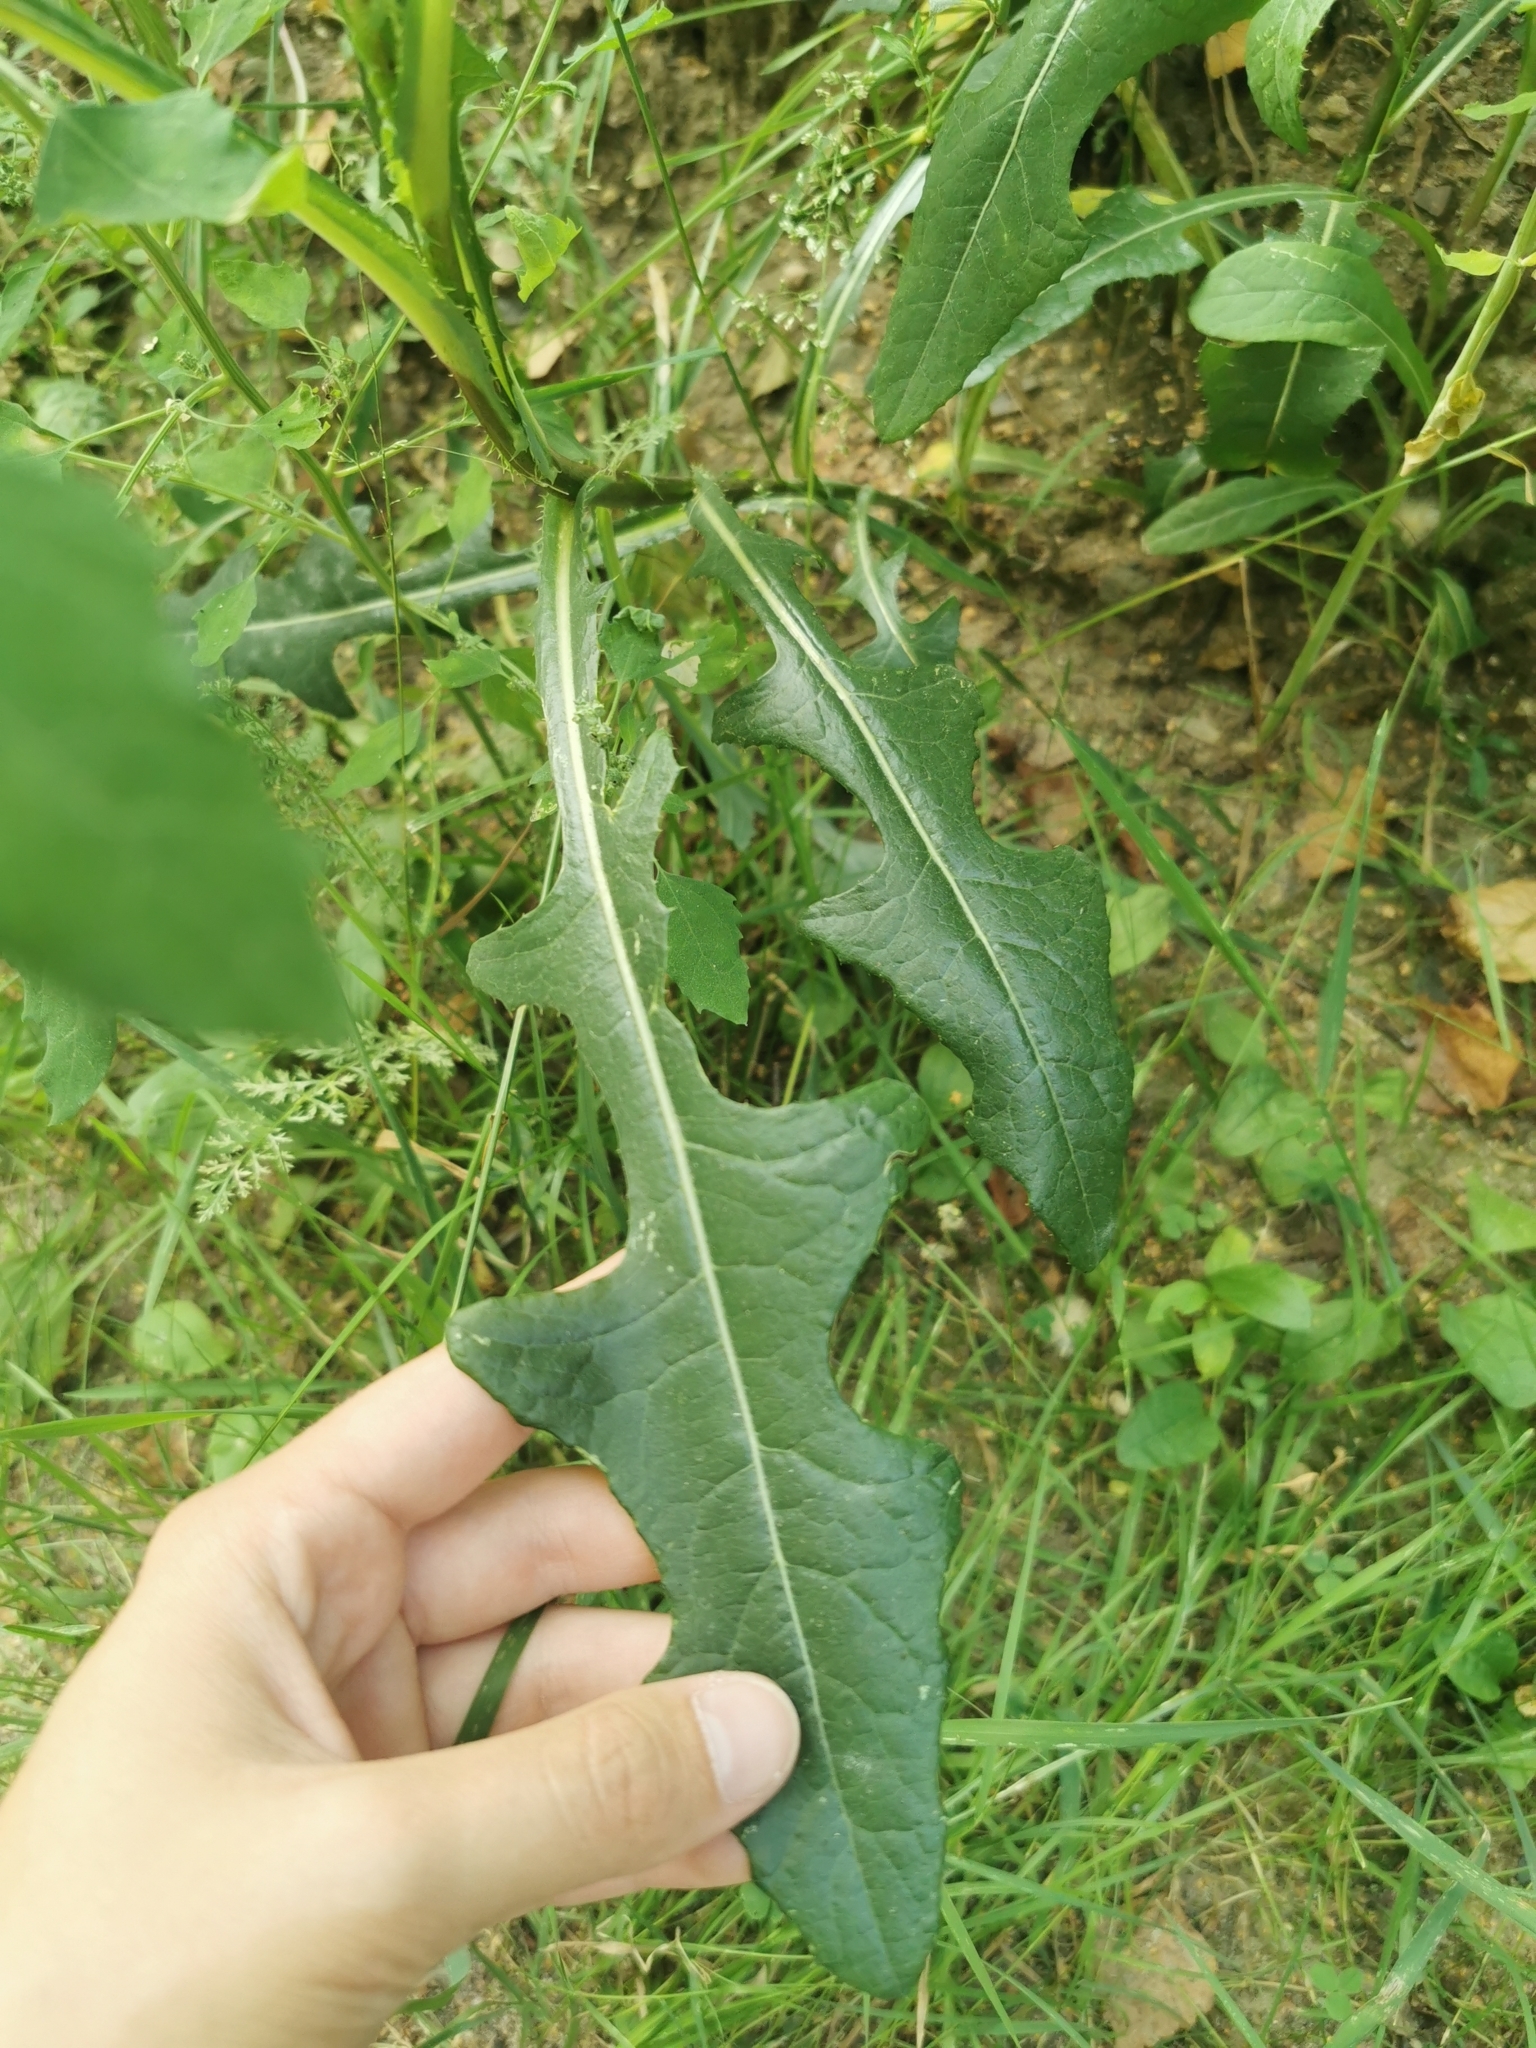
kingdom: Plantae
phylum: Tracheophyta
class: Magnoliopsida
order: Asterales
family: Asteraceae
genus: Sonchus
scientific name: Sonchus arvensis
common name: Perennial sow-thistle
